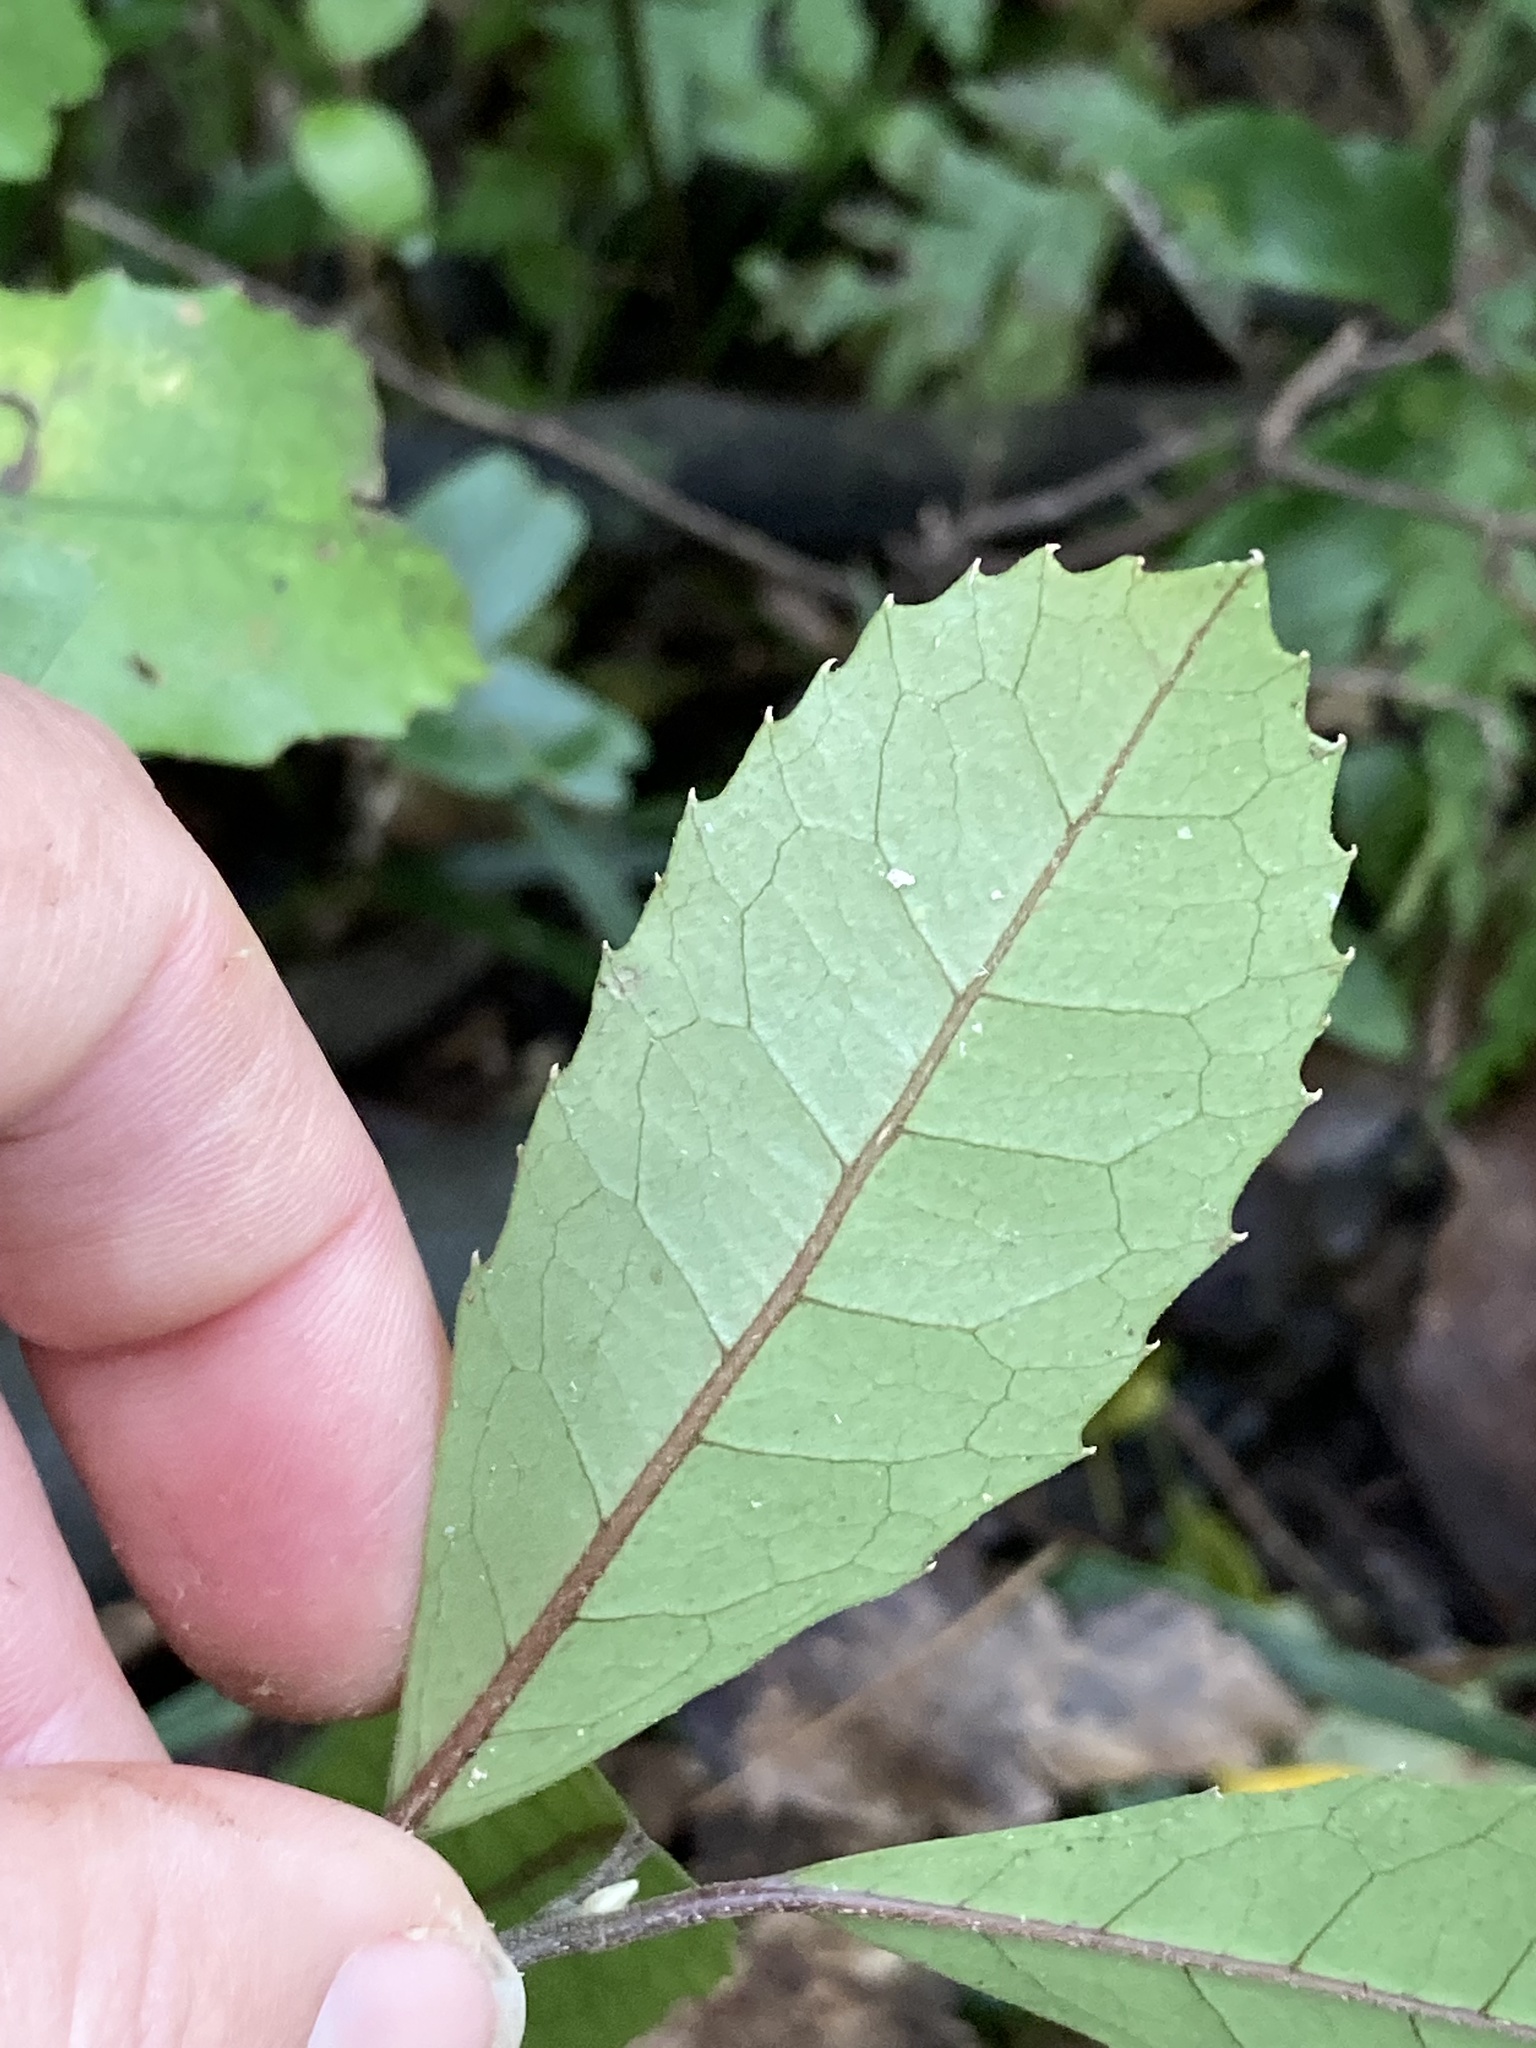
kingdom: Plantae
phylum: Tracheophyta
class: Magnoliopsida
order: Laurales
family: Monimiaceae
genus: Hedycarya
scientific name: Hedycarya arborea
